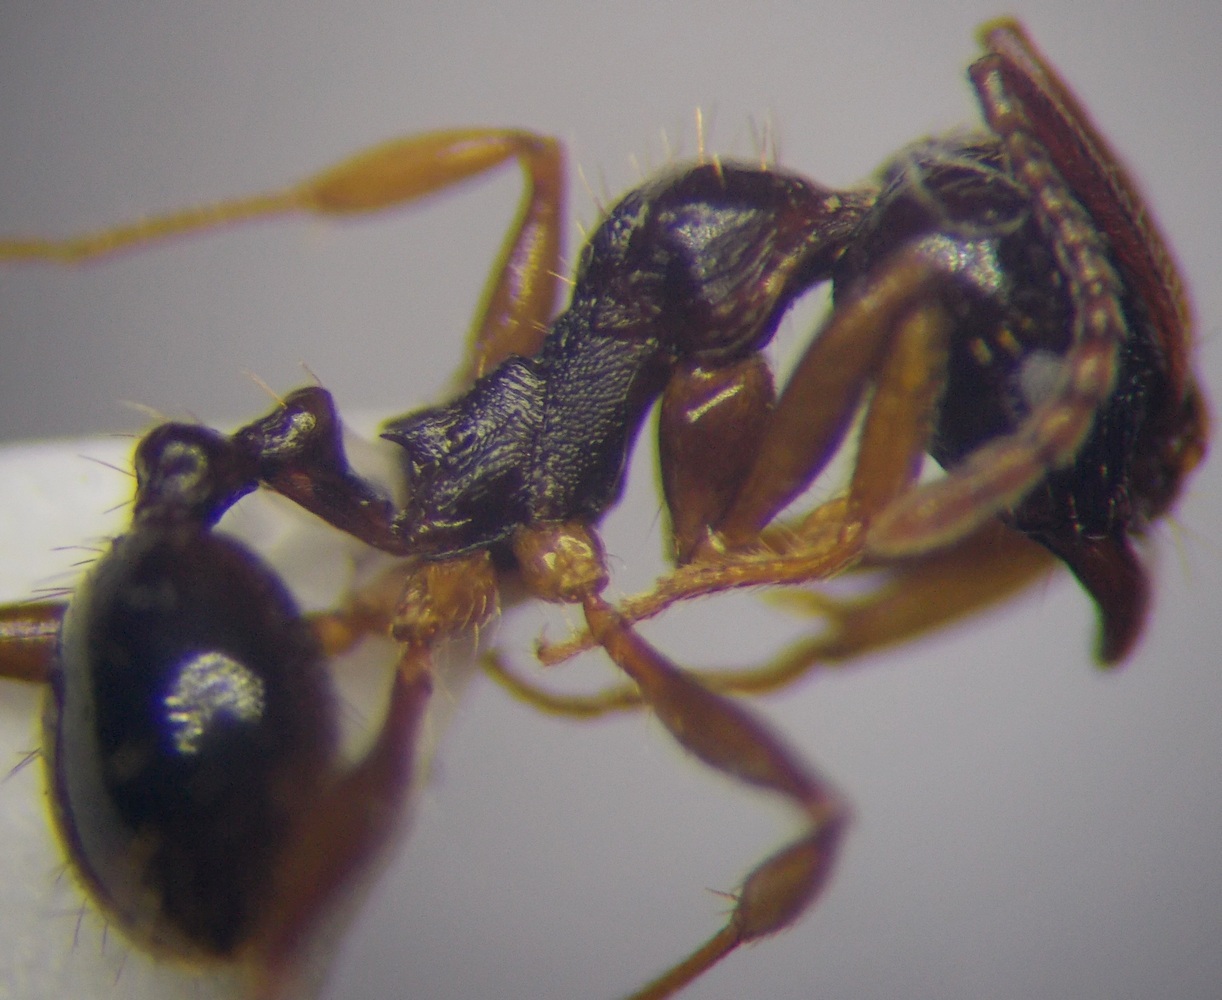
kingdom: Animalia
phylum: Arthropoda
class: Insecta
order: Hymenoptera
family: Formicidae
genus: Aphaenogaster
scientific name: Aphaenogaster subterranea
